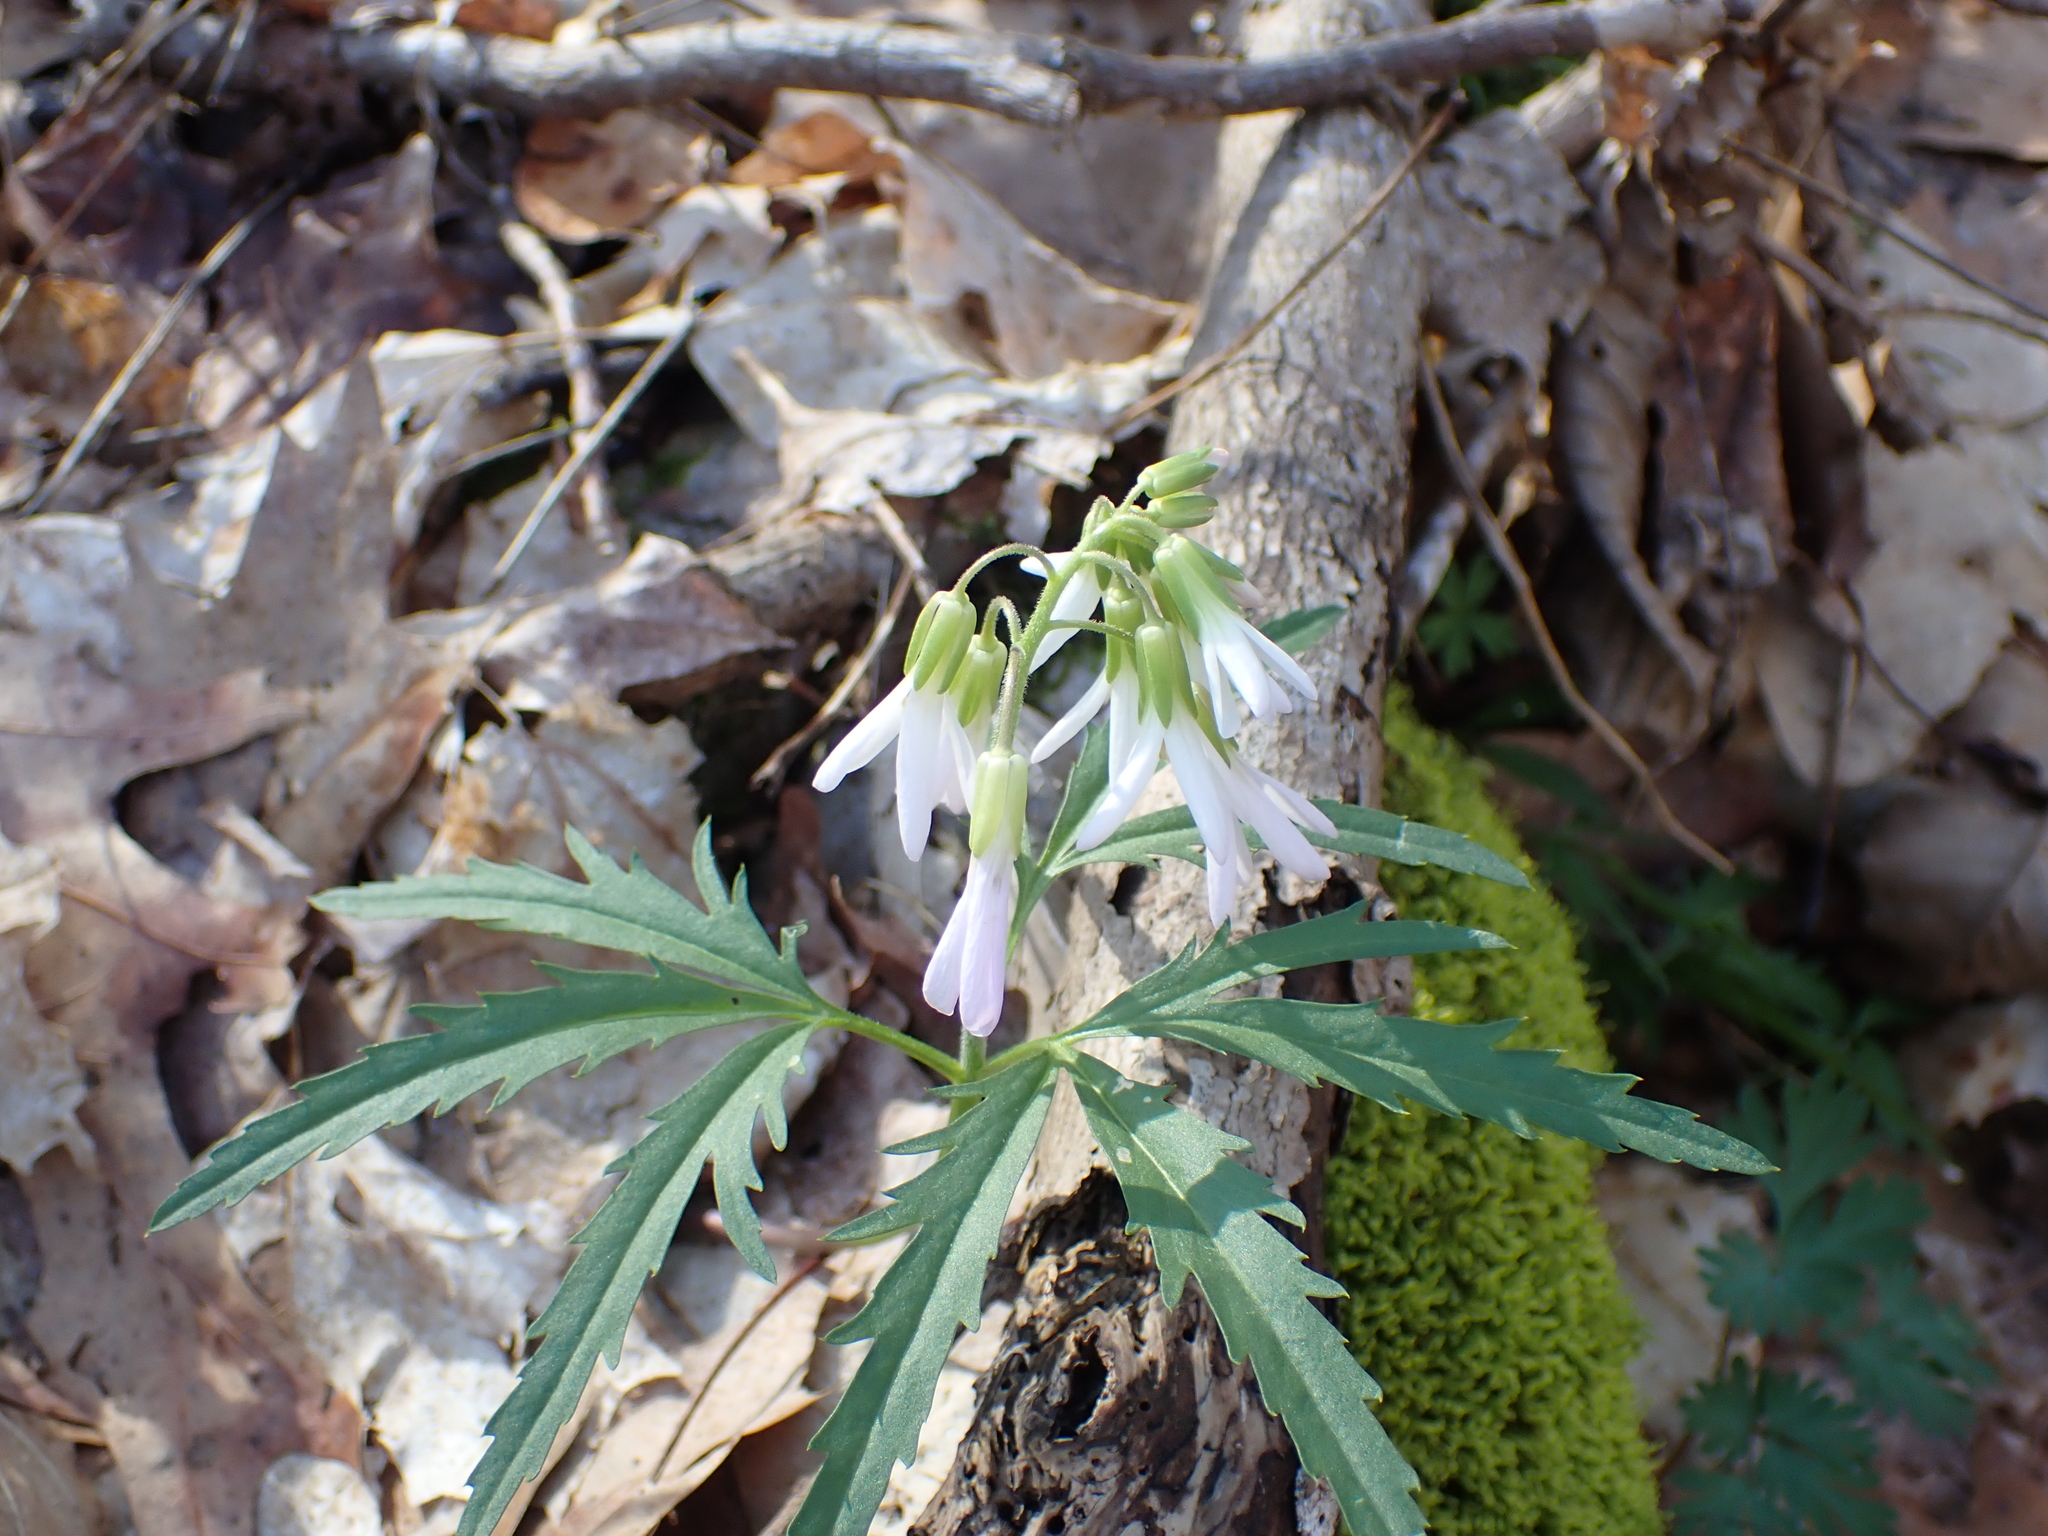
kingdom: Plantae
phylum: Tracheophyta
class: Magnoliopsida
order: Brassicales
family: Brassicaceae
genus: Cardamine
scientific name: Cardamine concatenata
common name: Cut-leaf toothcup
